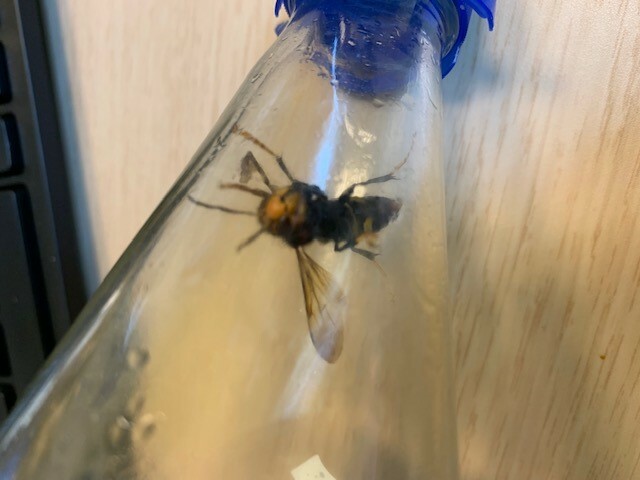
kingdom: Animalia
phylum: Arthropoda
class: Insecta
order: Hymenoptera
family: Vespidae
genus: Vespa
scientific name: Vespa velutina
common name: Asian hornet
